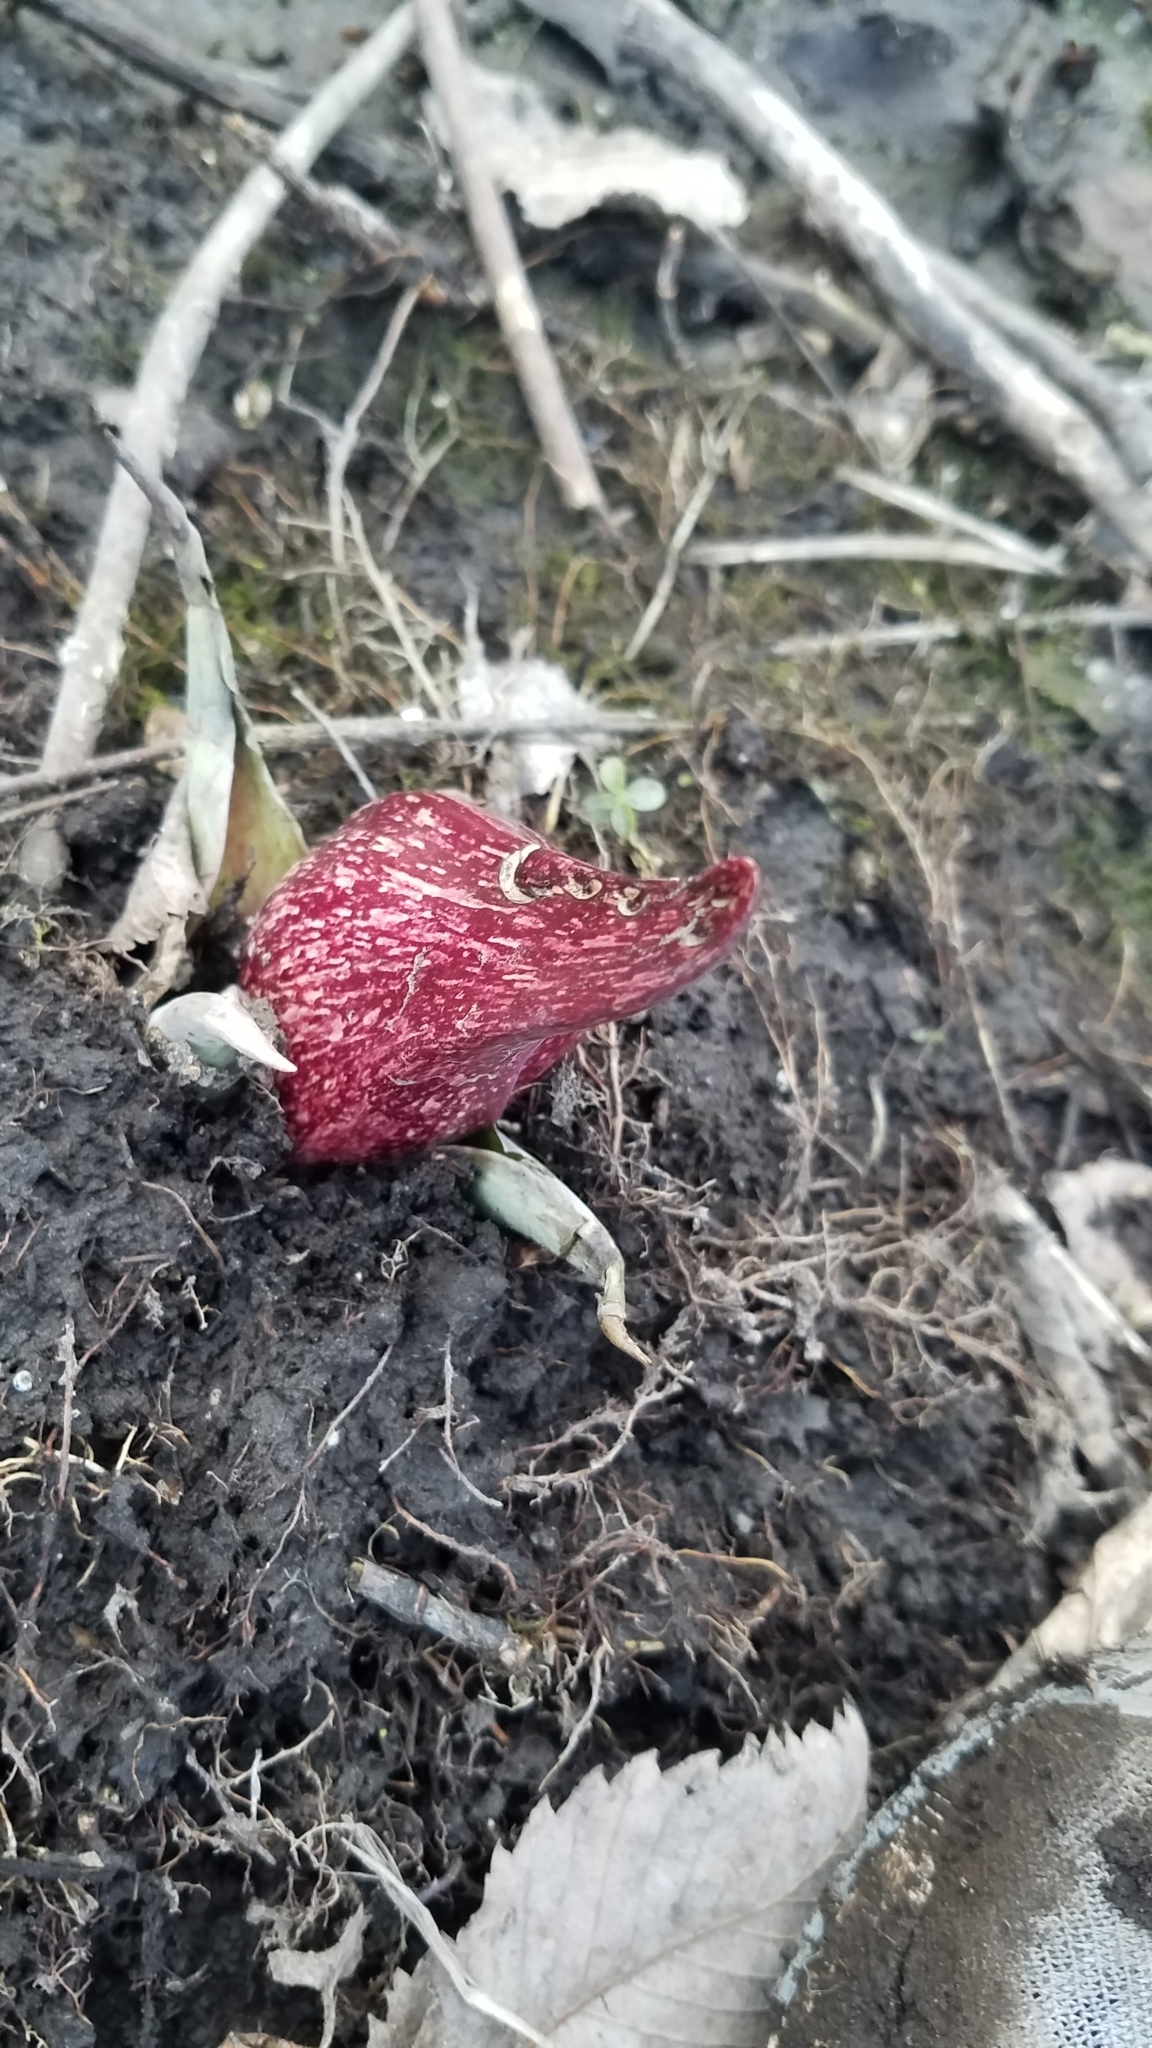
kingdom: Plantae
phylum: Tracheophyta
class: Liliopsida
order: Alismatales
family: Araceae
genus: Symplocarpus
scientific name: Symplocarpus foetidus
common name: Eastern skunk cabbage
